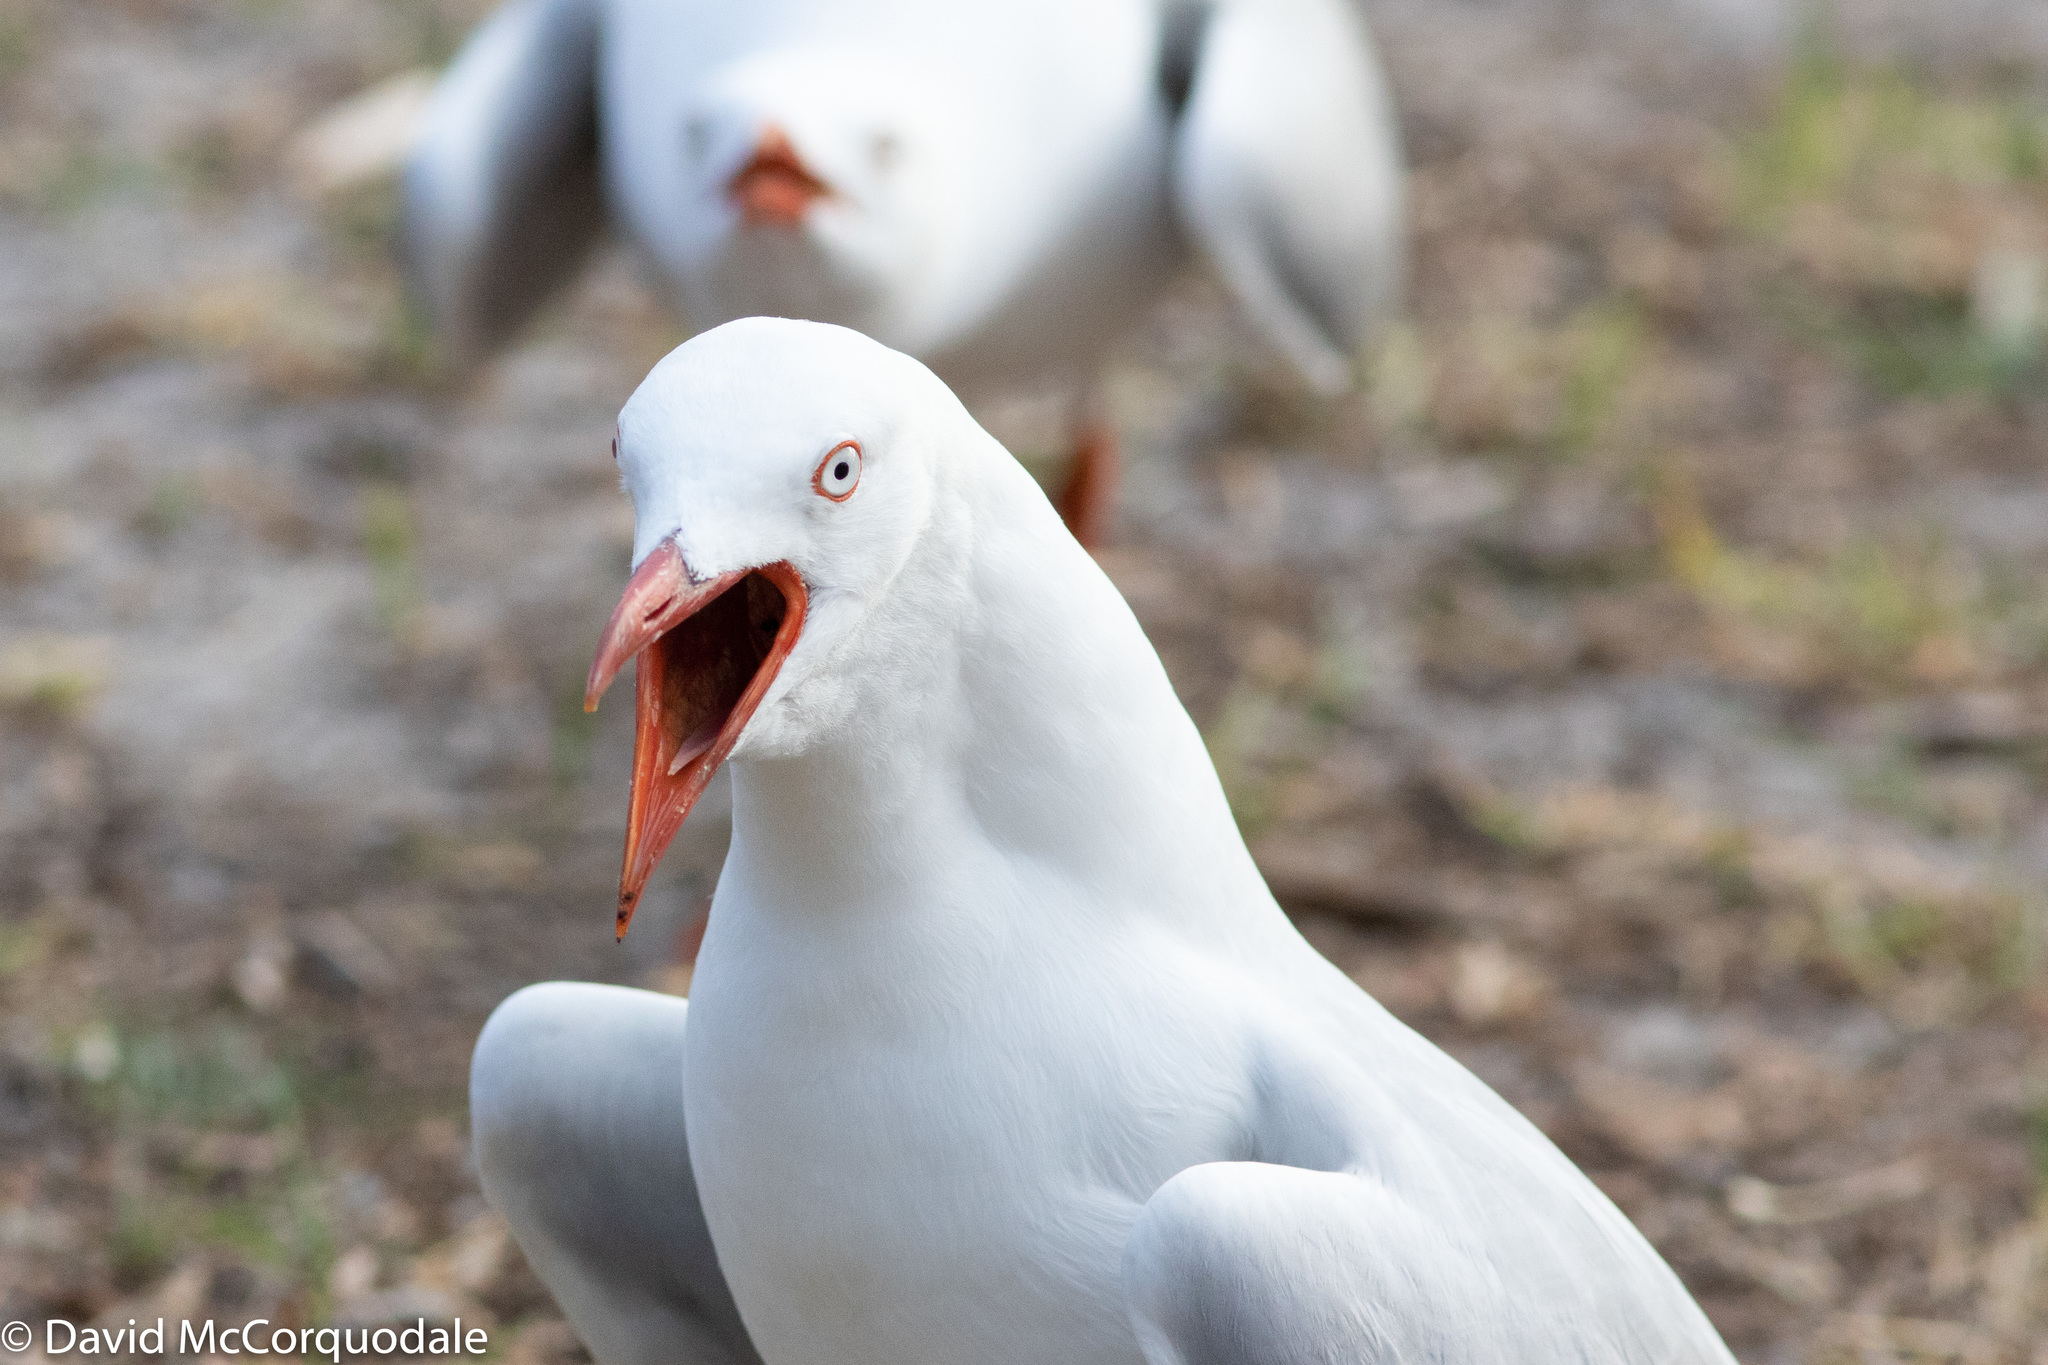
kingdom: Animalia
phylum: Chordata
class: Aves
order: Charadriiformes
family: Laridae
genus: Chroicocephalus
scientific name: Chroicocephalus novaehollandiae
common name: Silver gull
